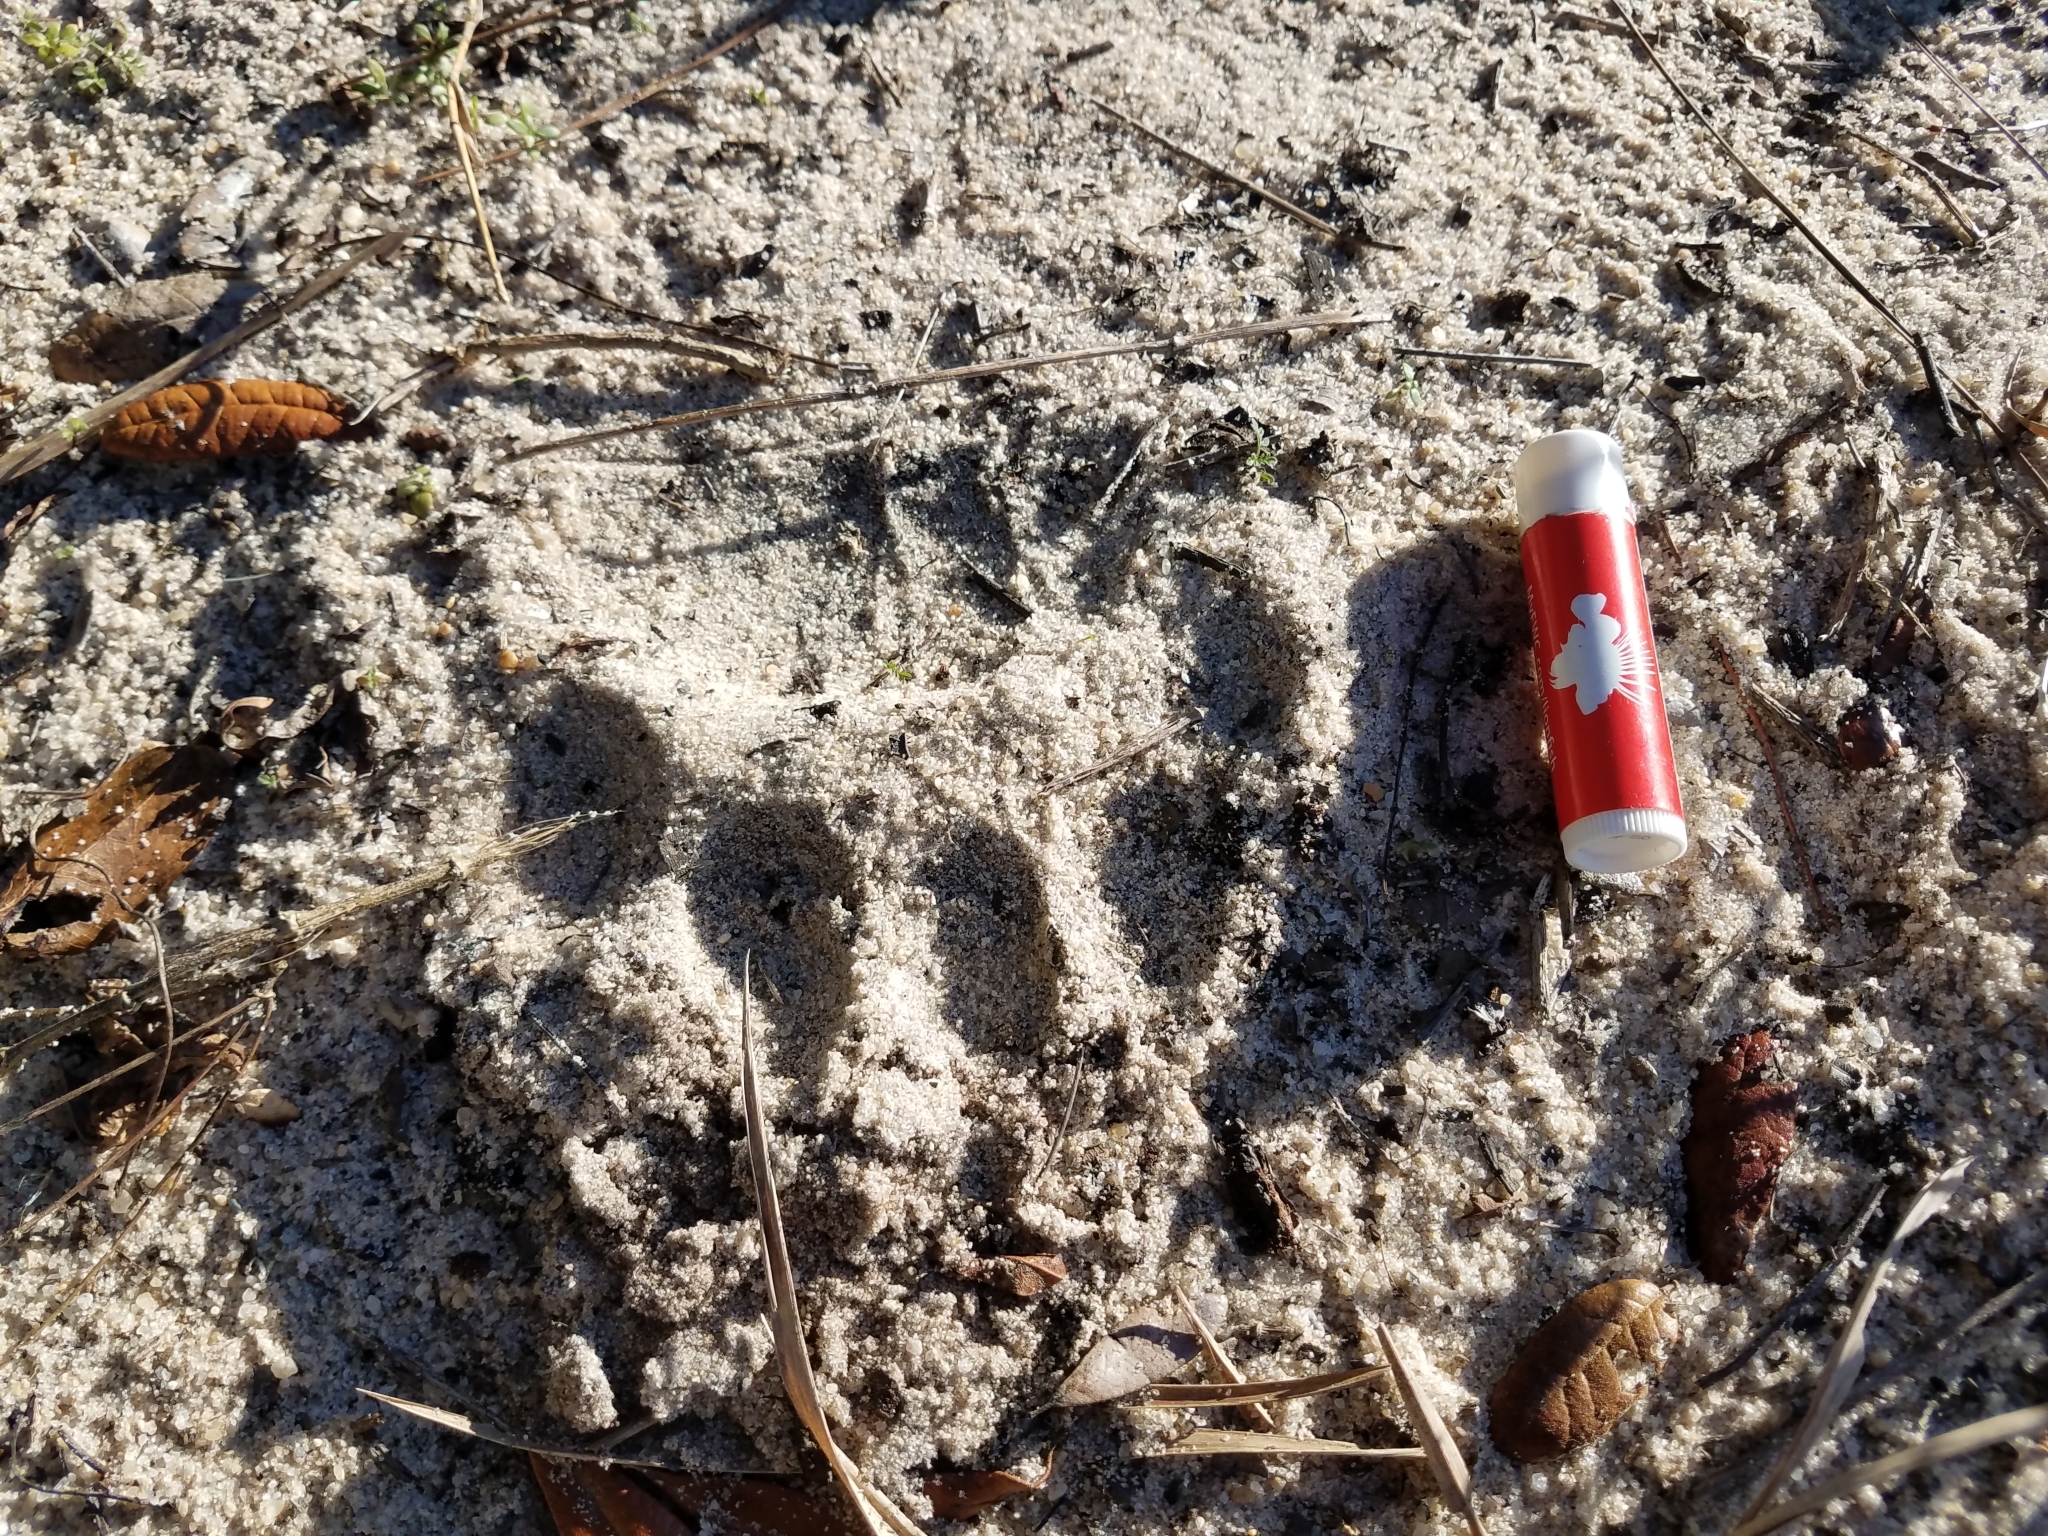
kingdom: Animalia
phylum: Chordata
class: Mammalia
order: Carnivora
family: Ursidae
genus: Ursus
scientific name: Ursus americanus
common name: American black bear
